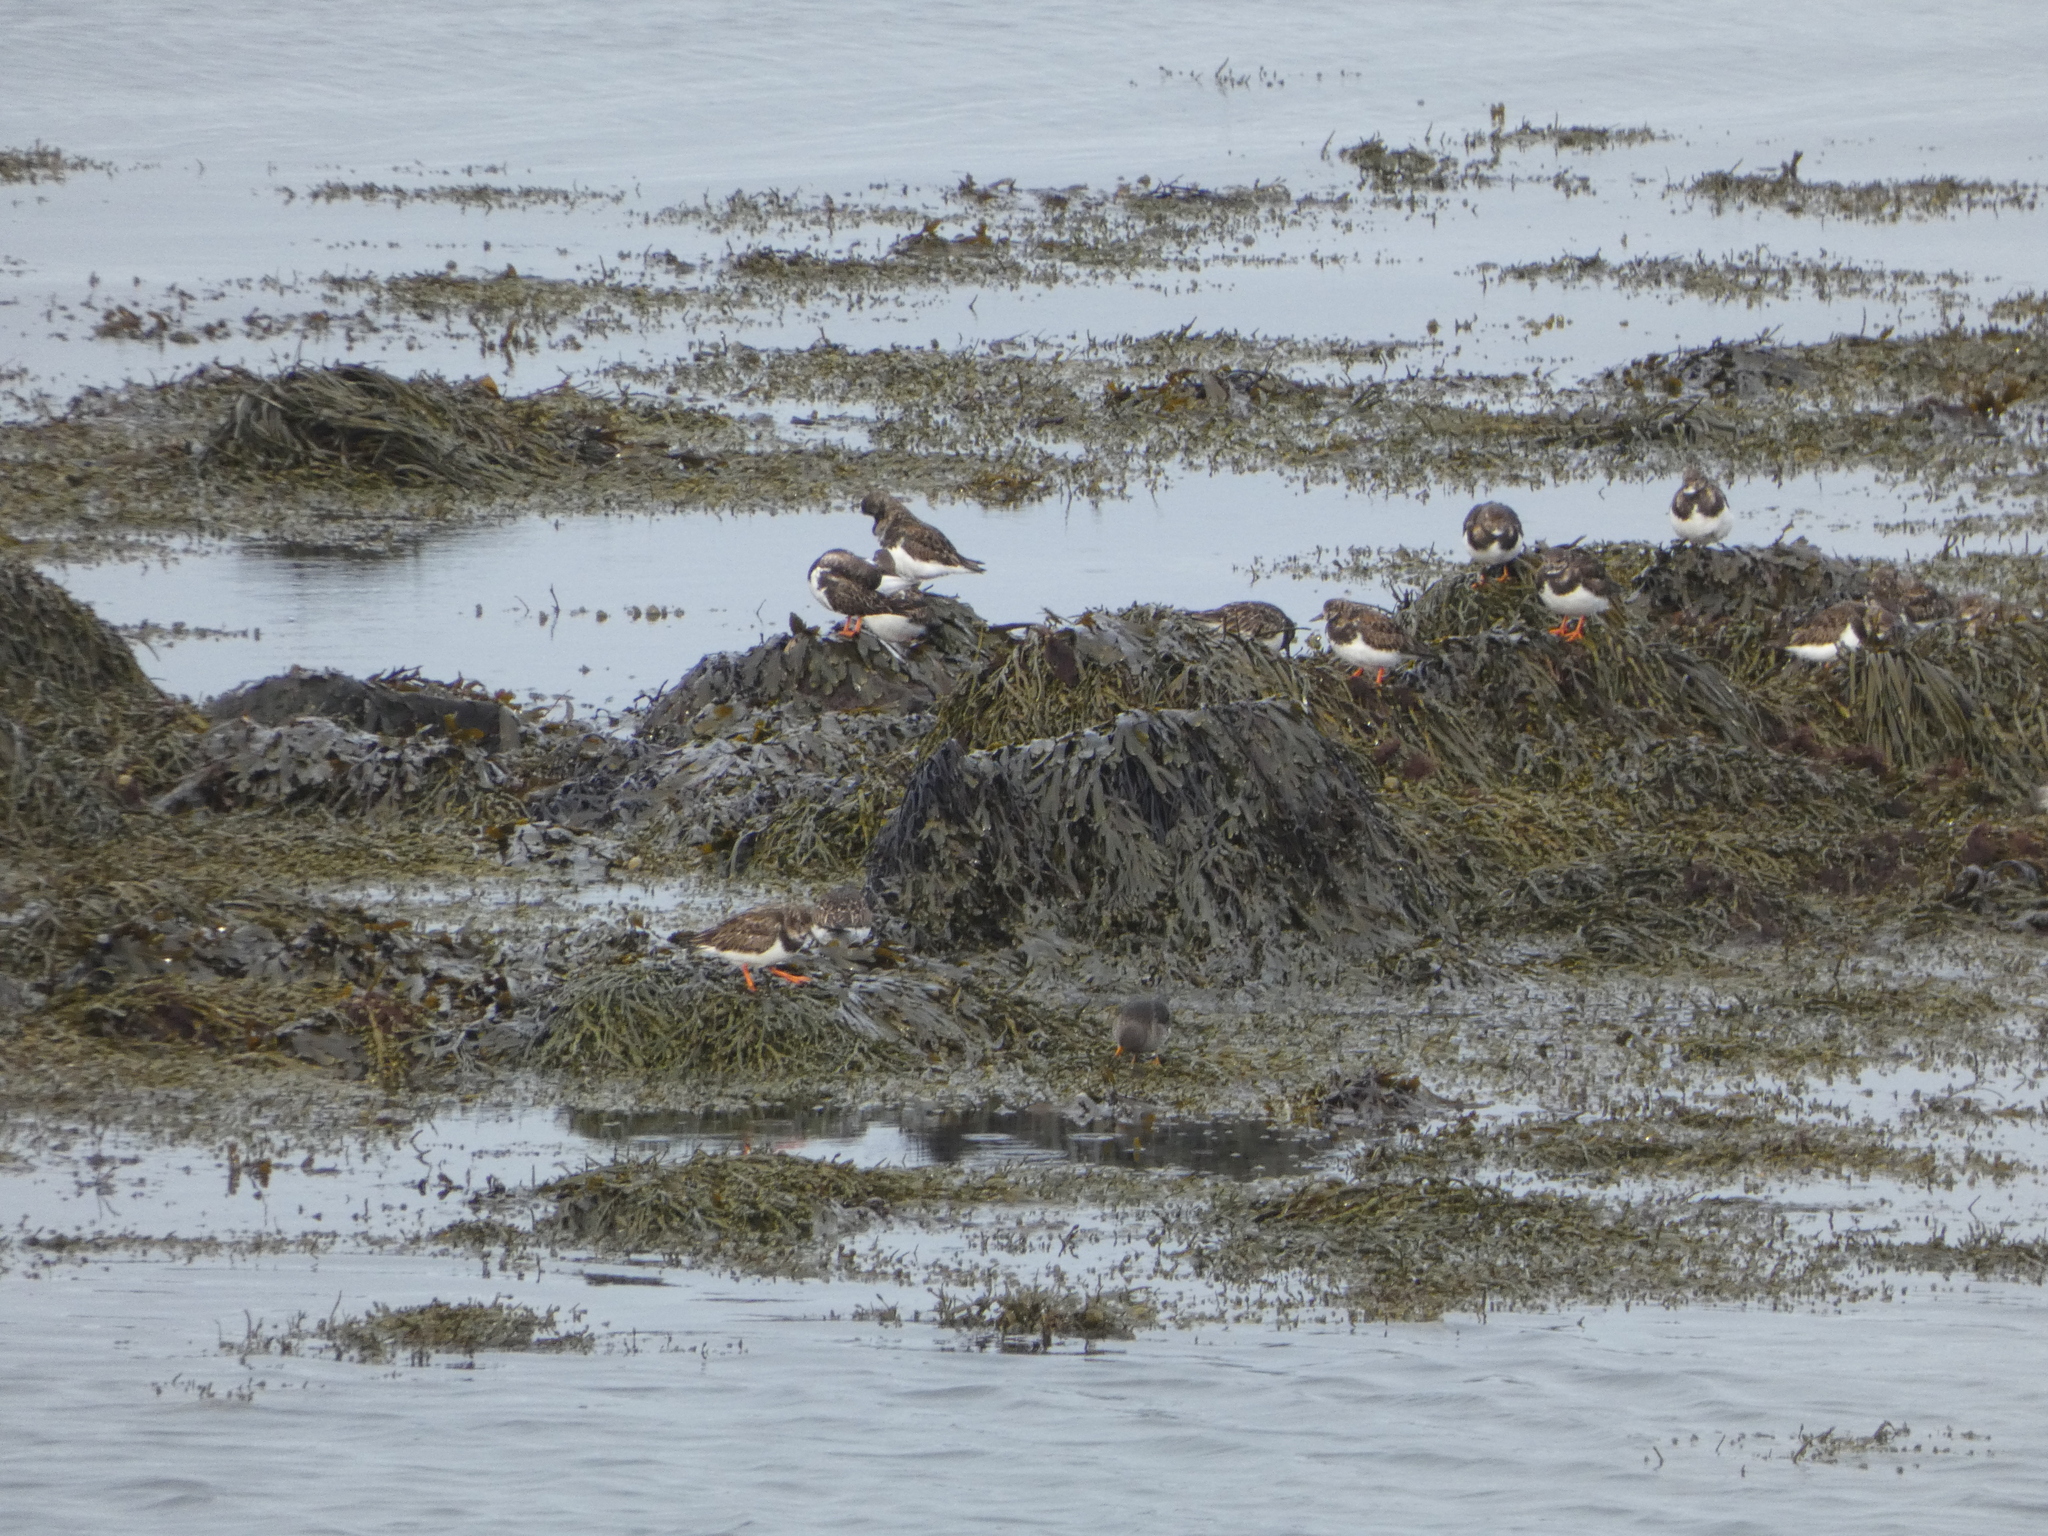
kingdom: Animalia
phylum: Chordata
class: Aves
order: Charadriiformes
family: Scolopacidae
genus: Arenaria
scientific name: Arenaria interpres
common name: Ruddy turnstone
